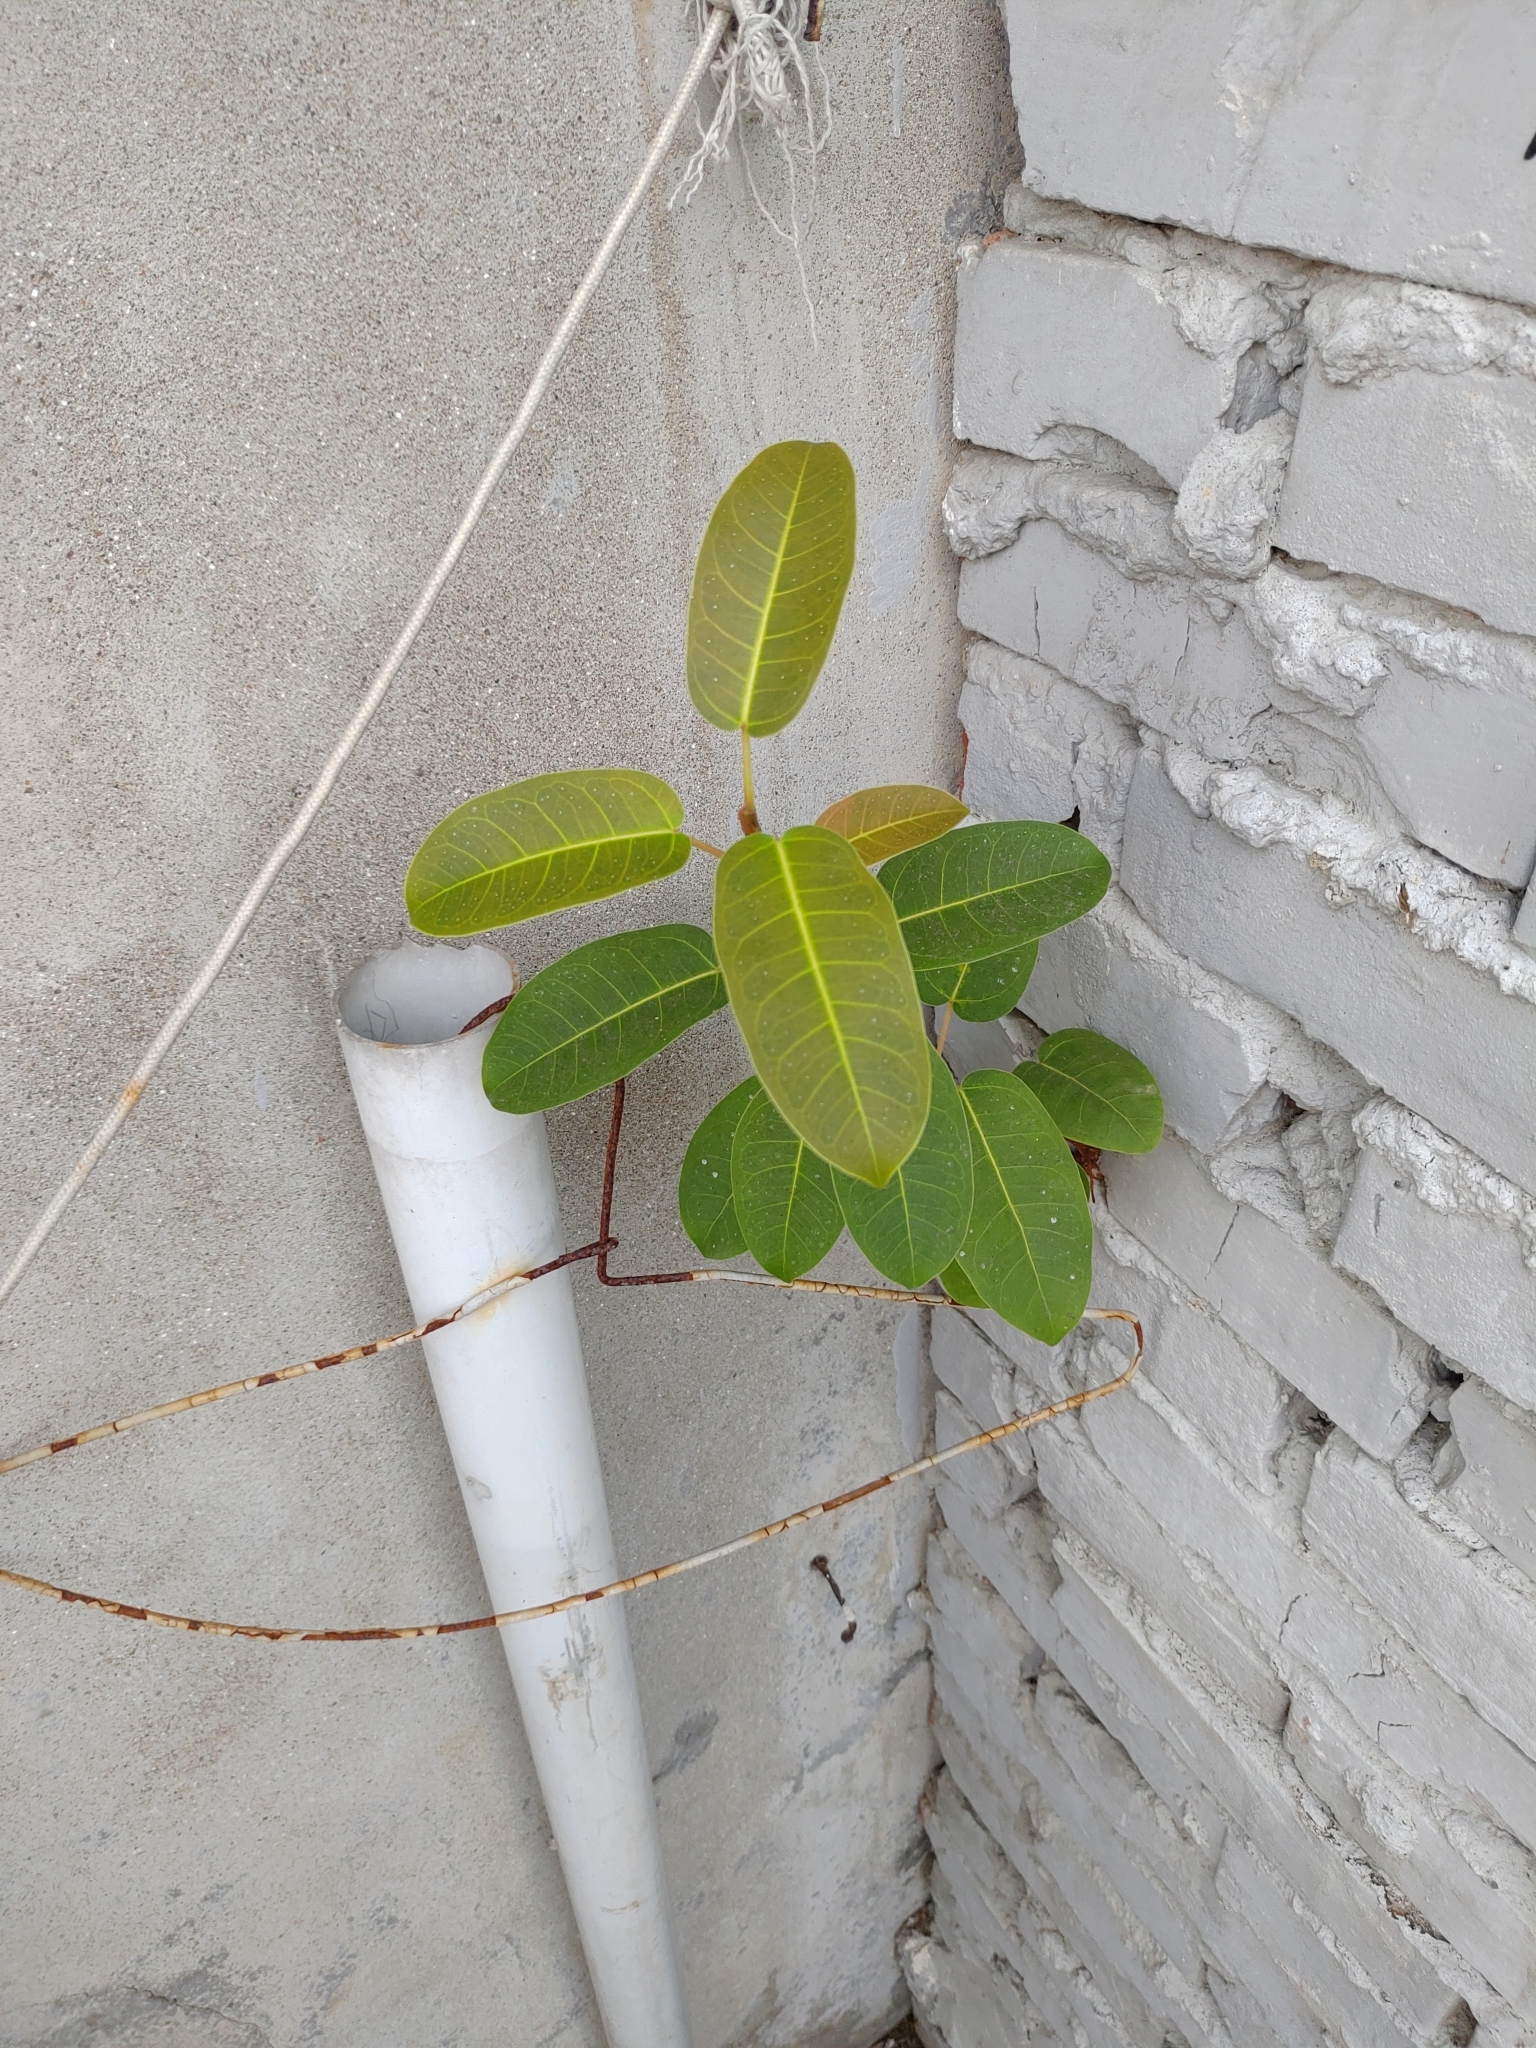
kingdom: Plantae
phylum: Tracheophyta
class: Magnoliopsida
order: Rosales
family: Moraceae
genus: Ficus
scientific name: Ficus subpisocarpa
